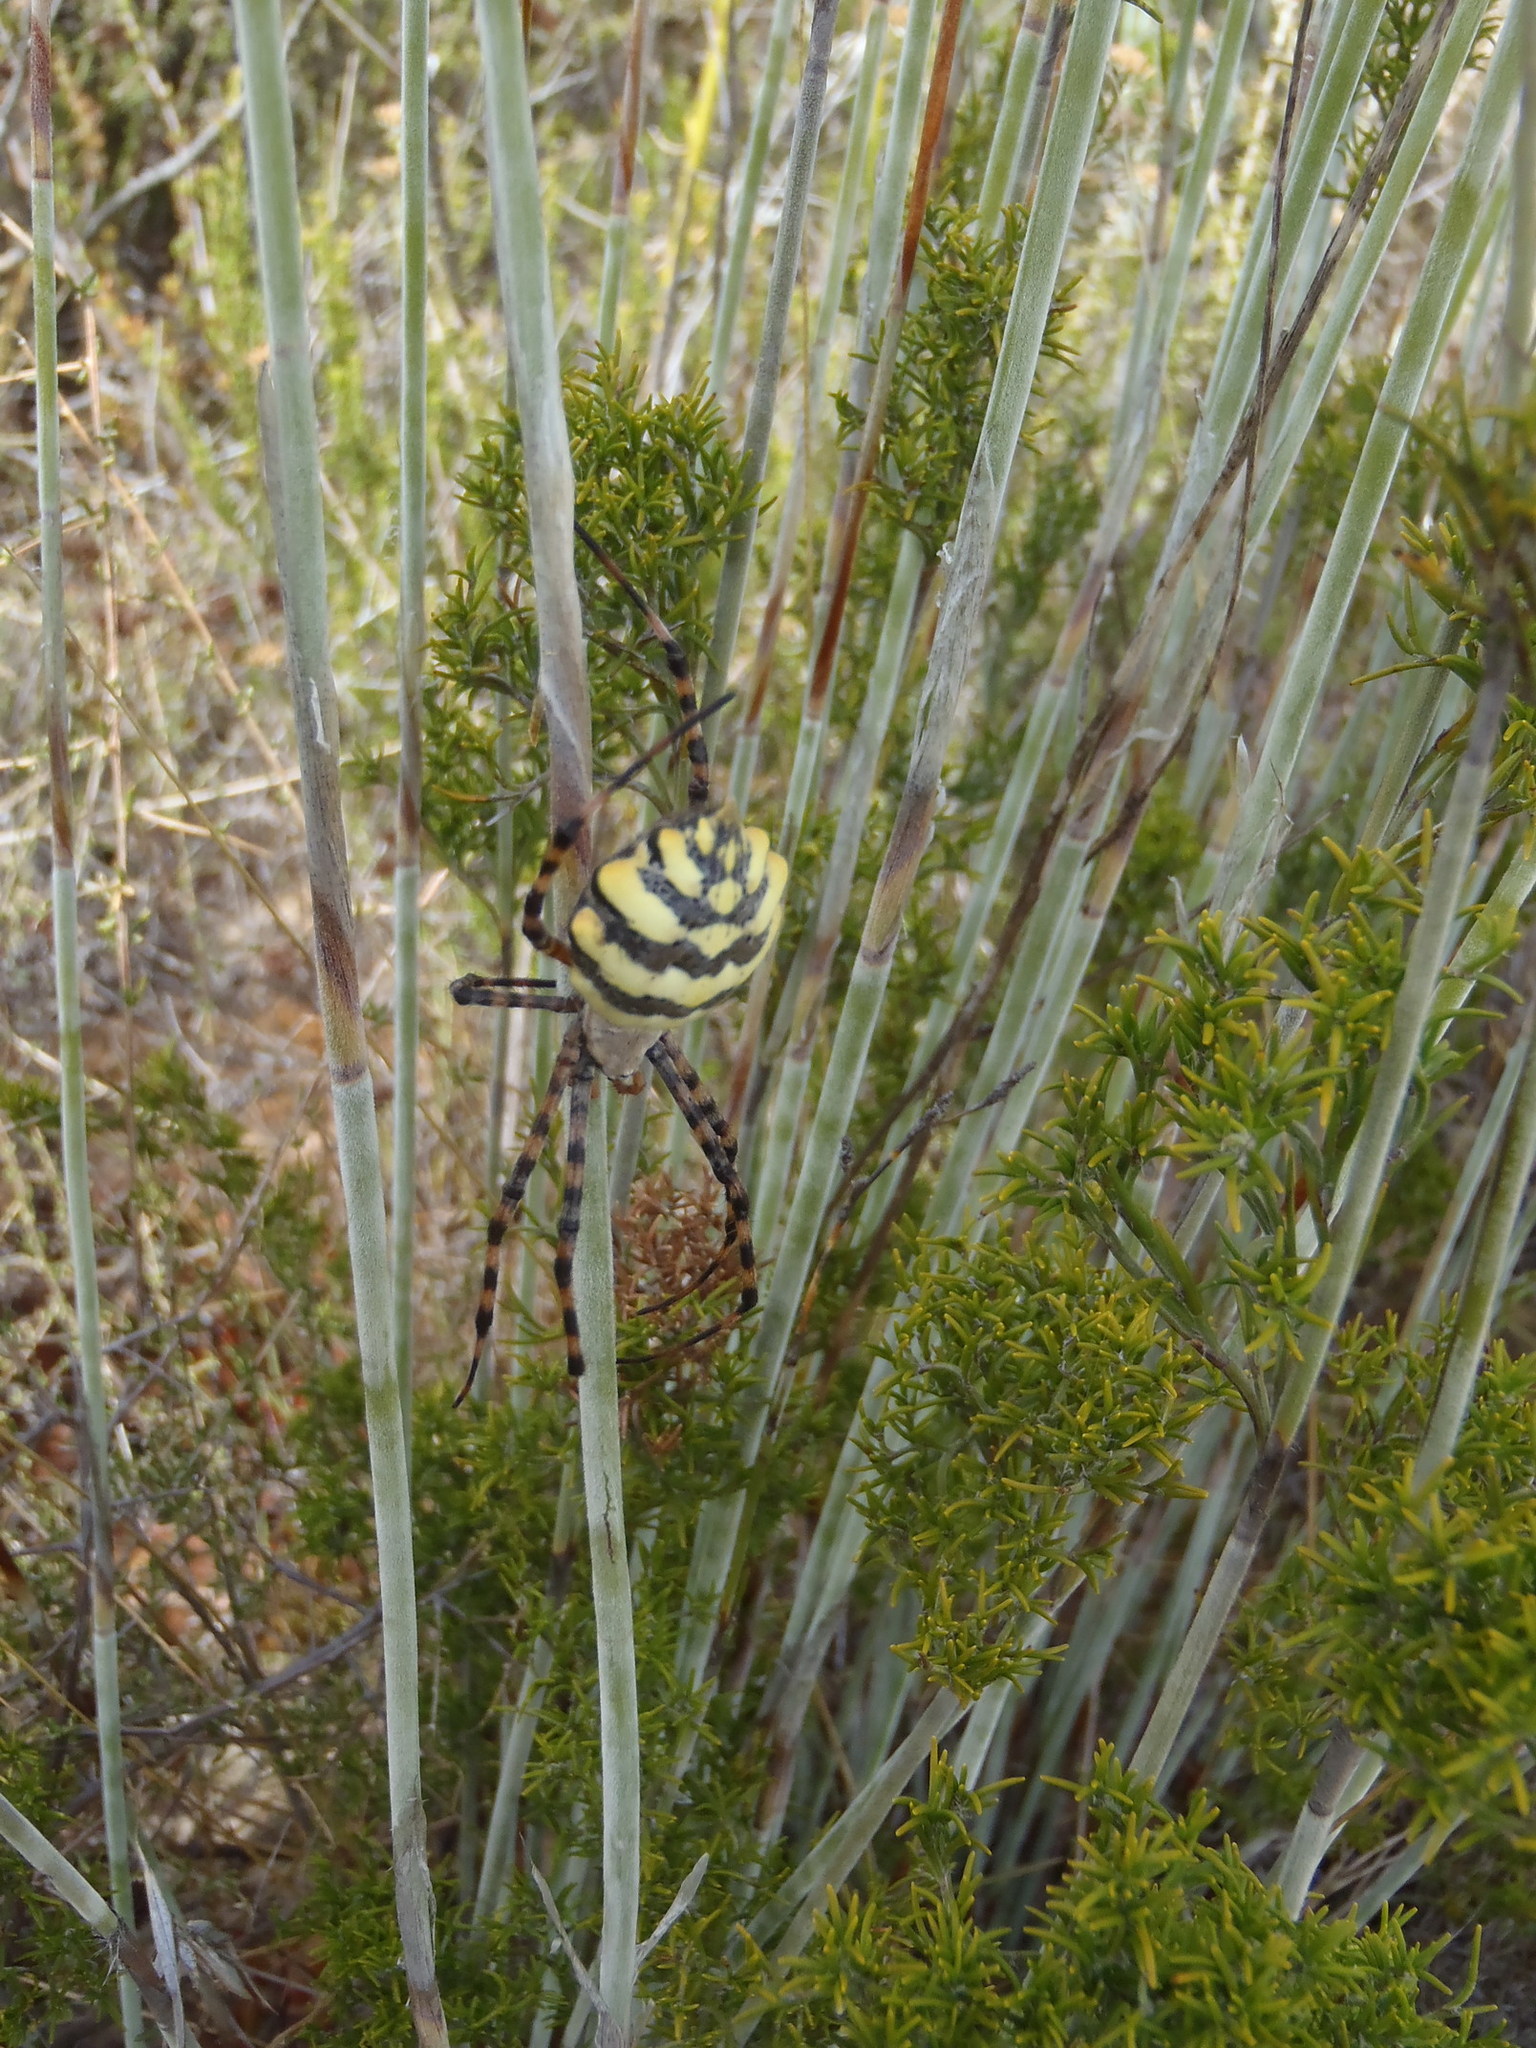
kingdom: Animalia
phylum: Arthropoda
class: Arachnida
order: Araneae
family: Araneidae
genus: Argiope
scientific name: Argiope australis
